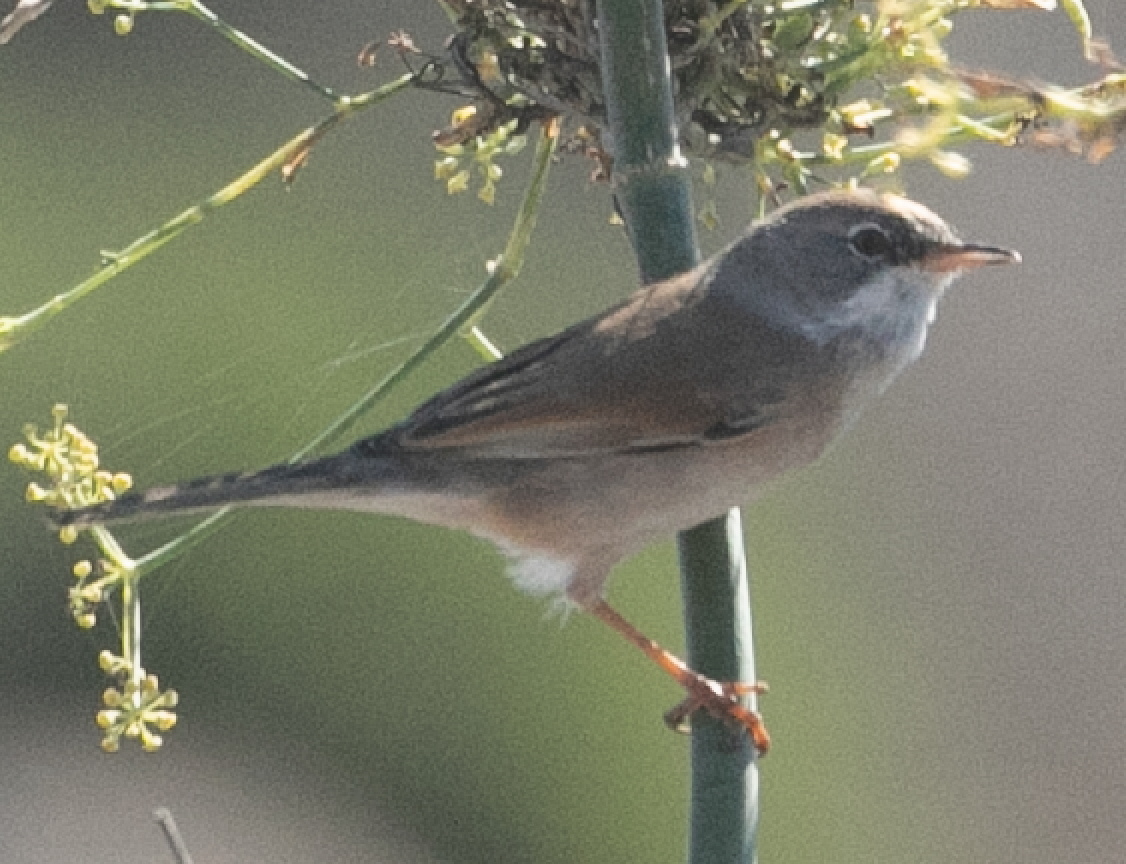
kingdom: Animalia
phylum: Chordata
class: Aves
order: Passeriformes
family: Sylviidae
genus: Sylvia
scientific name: Sylvia conspicillata
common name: Spectacled warbler
